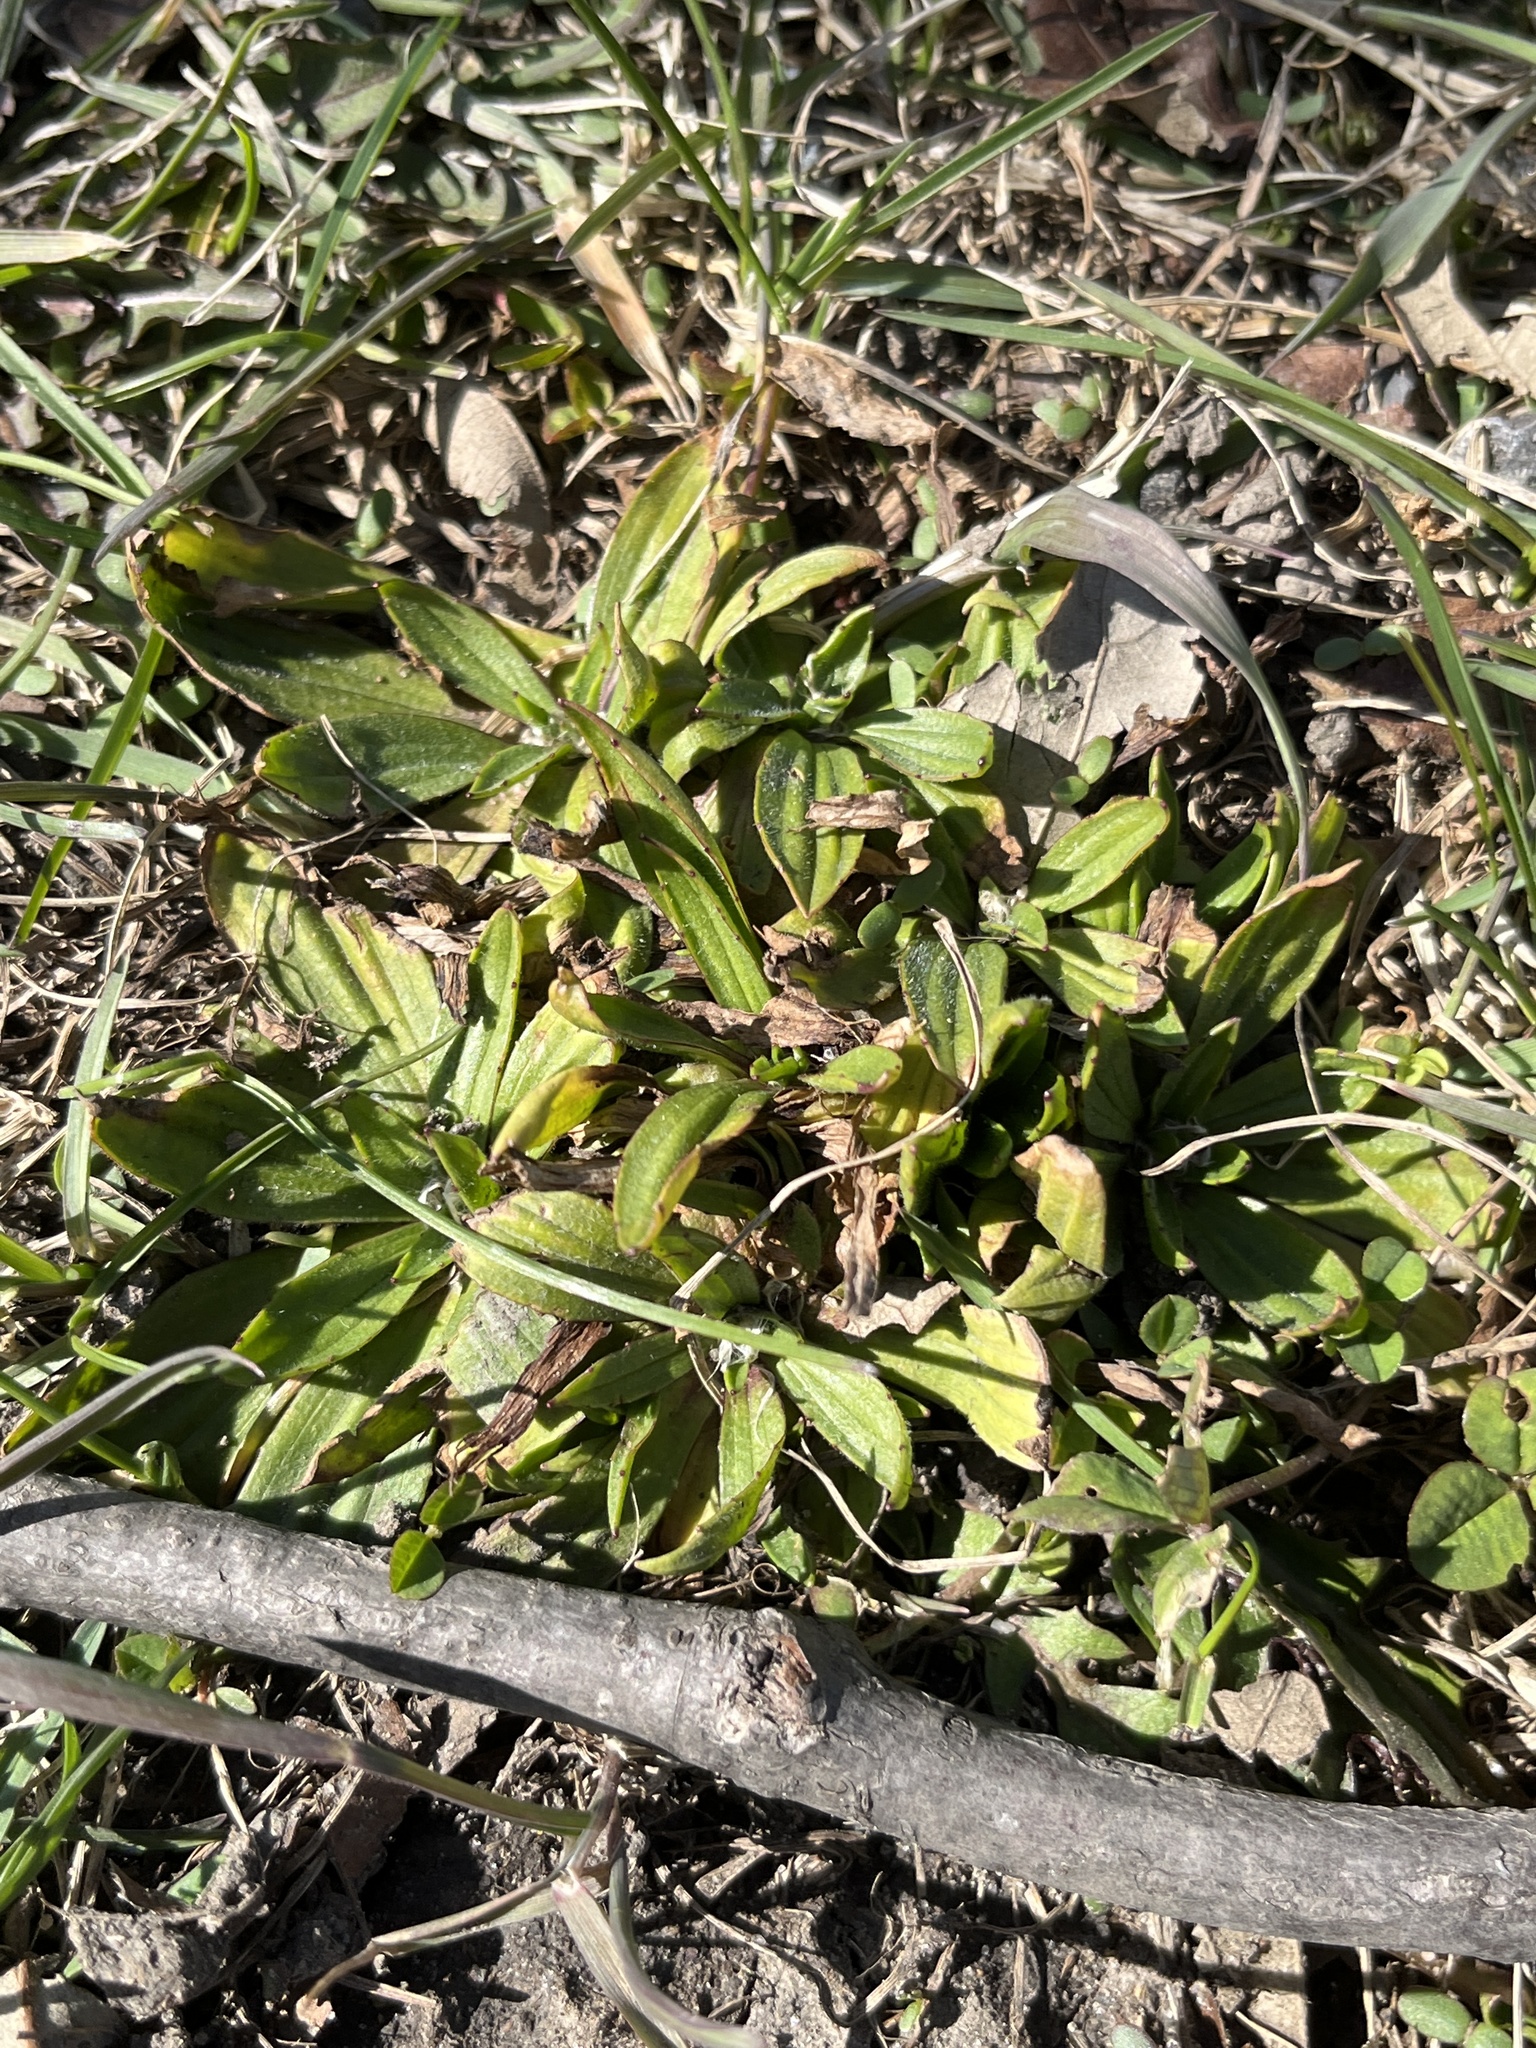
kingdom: Plantae
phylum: Tracheophyta
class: Magnoliopsida
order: Lamiales
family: Plantaginaceae
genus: Plantago
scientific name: Plantago lanceolata
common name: Ribwort plantain
